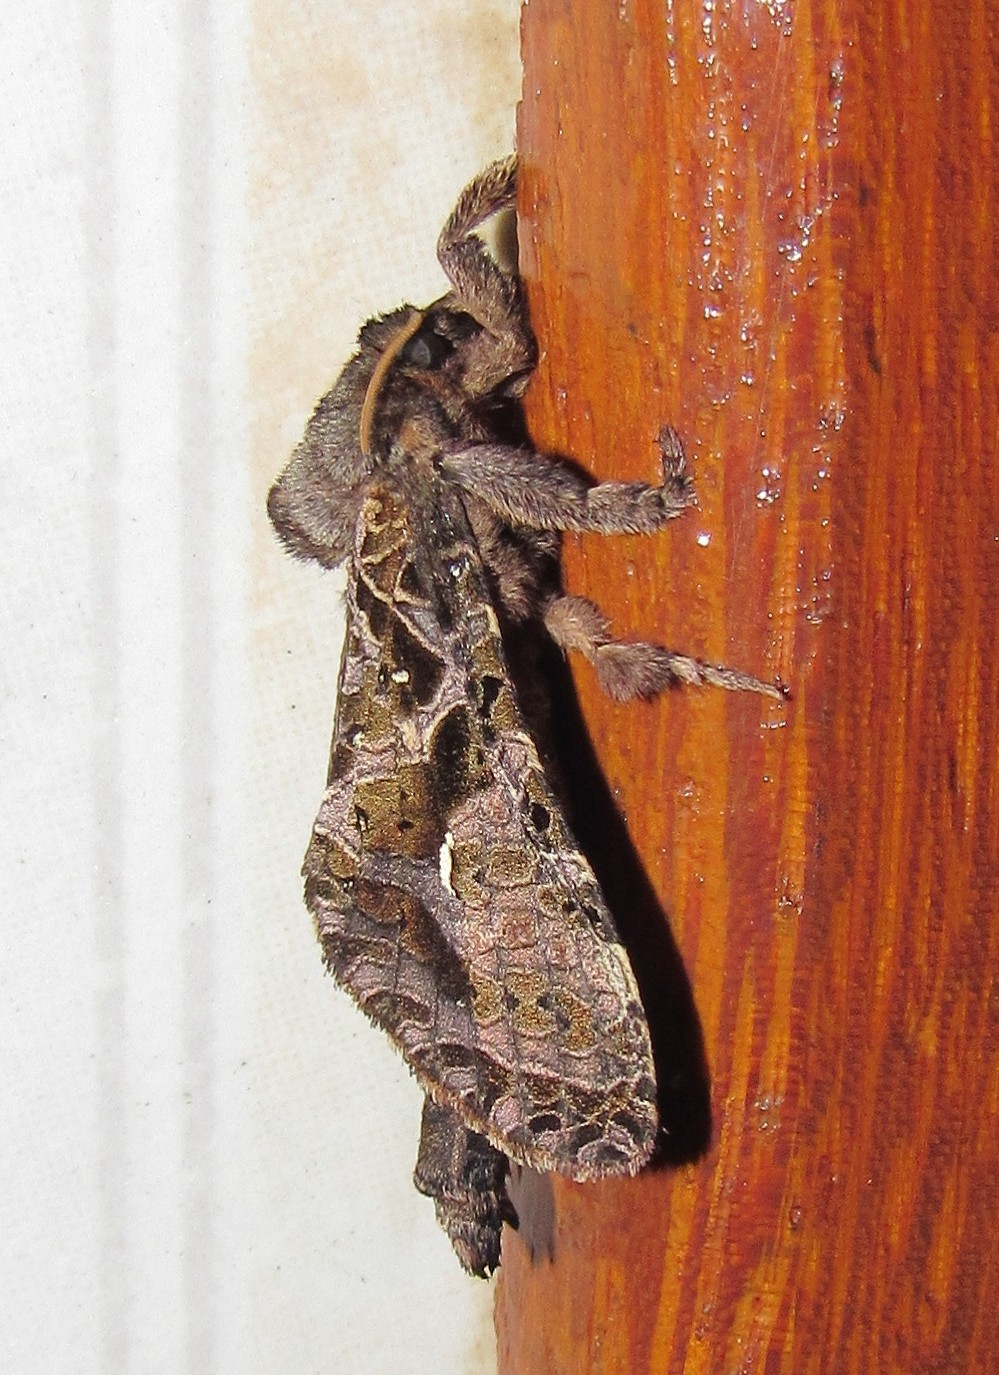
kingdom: Animalia
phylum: Arthropoda
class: Insecta
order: Lepidoptera
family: Hepialidae
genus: Tricladia
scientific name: Tricladia
